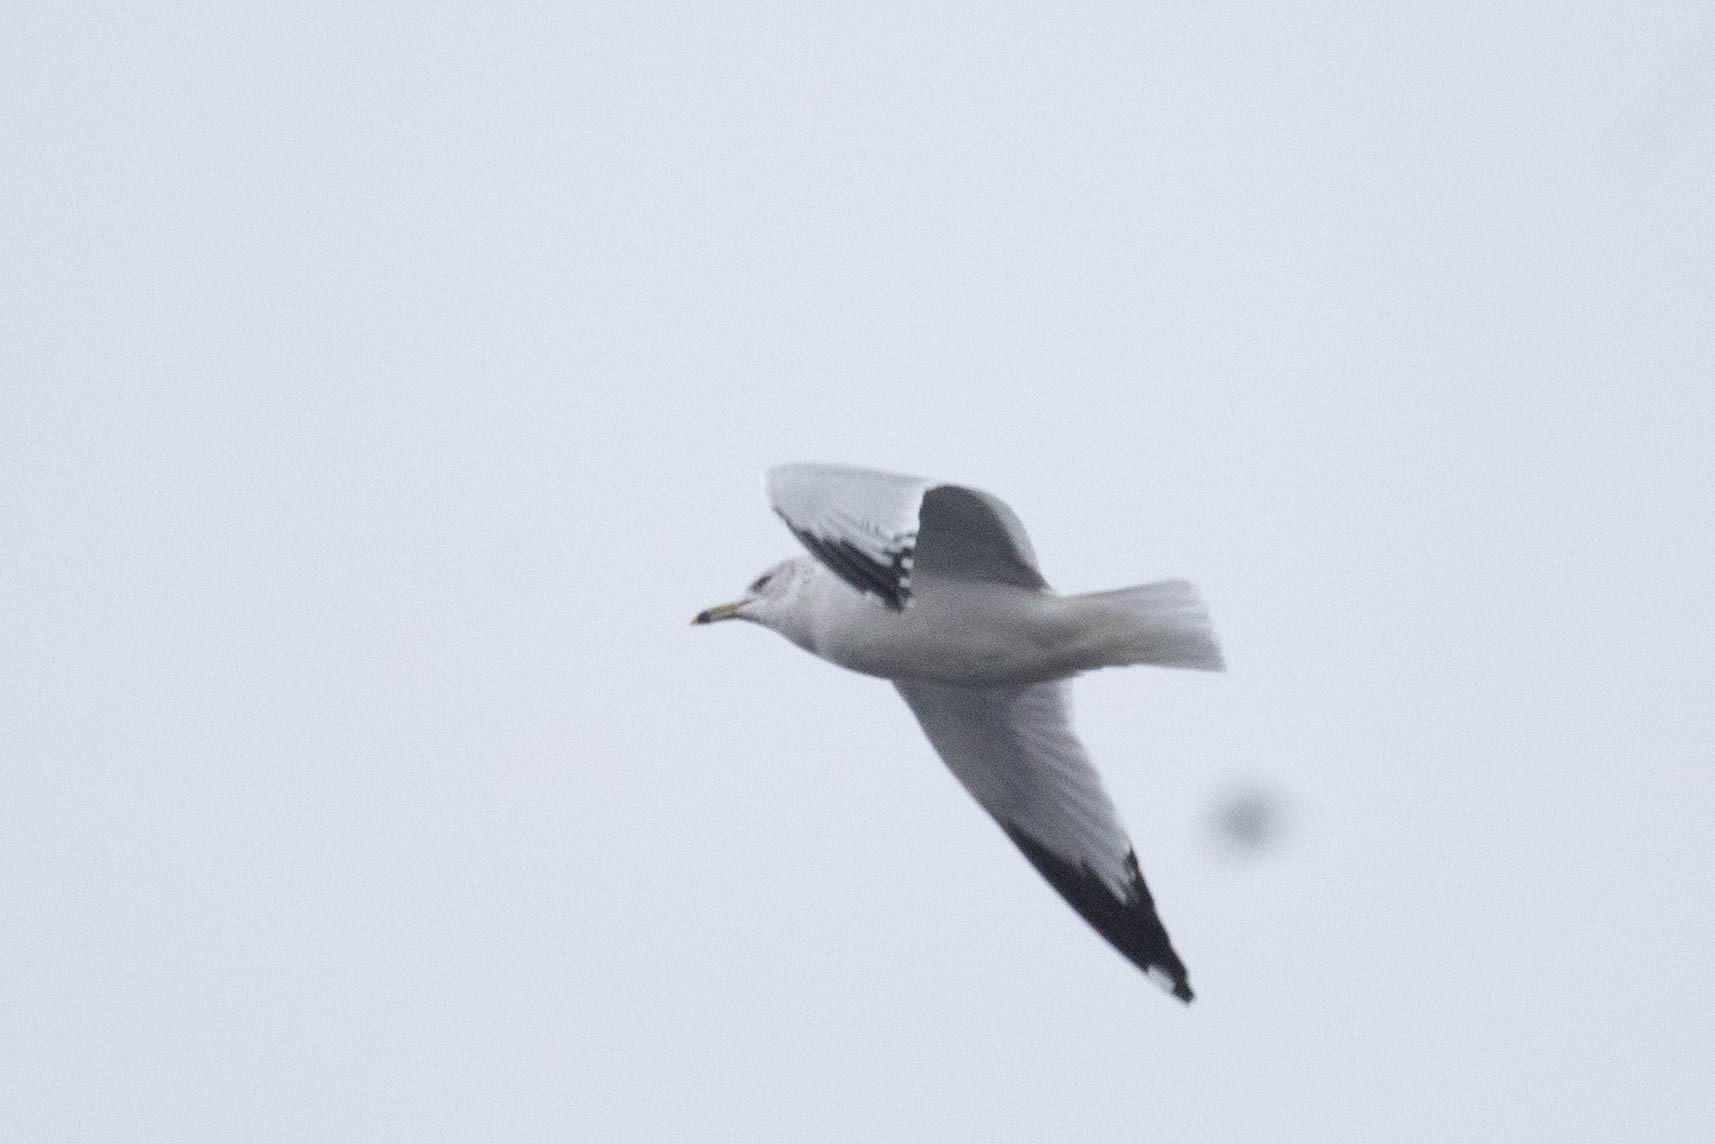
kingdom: Animalia
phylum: Chordata
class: Aves
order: Charadriiformes
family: Laridae
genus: Larus
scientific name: Larus delawarensis
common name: Ring-billed gull
